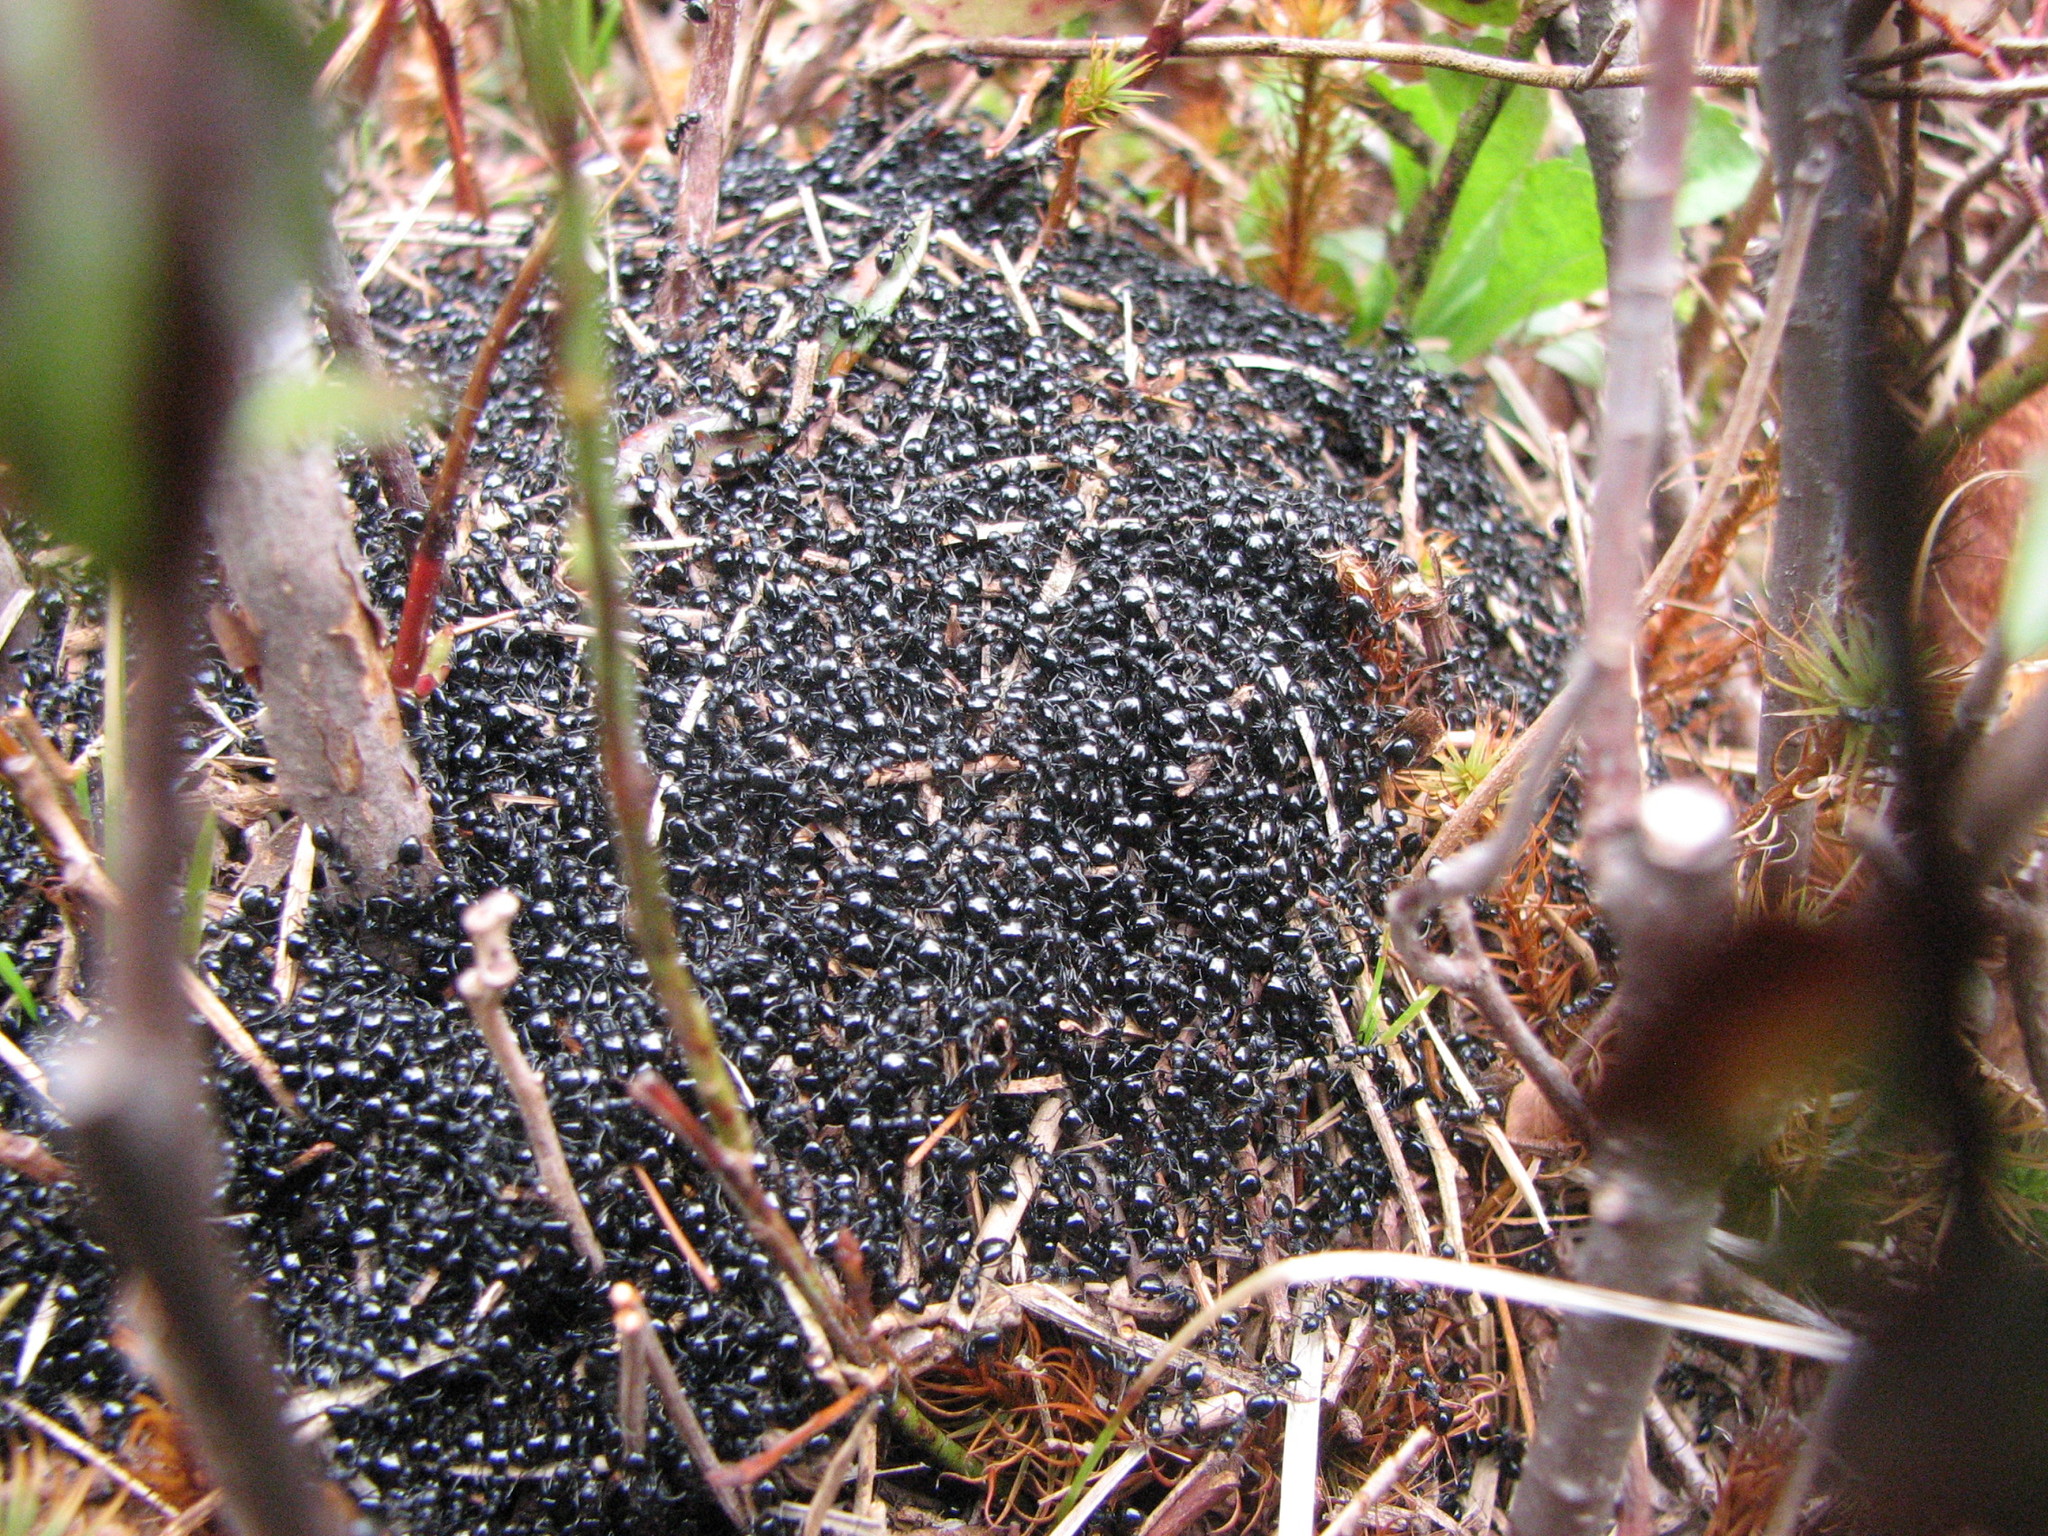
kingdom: Animalia
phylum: Arthropoda
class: Insecta
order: Hymenoptera
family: Formicidae
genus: Dolichoderus
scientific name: Dolichoderus taschenbergi
